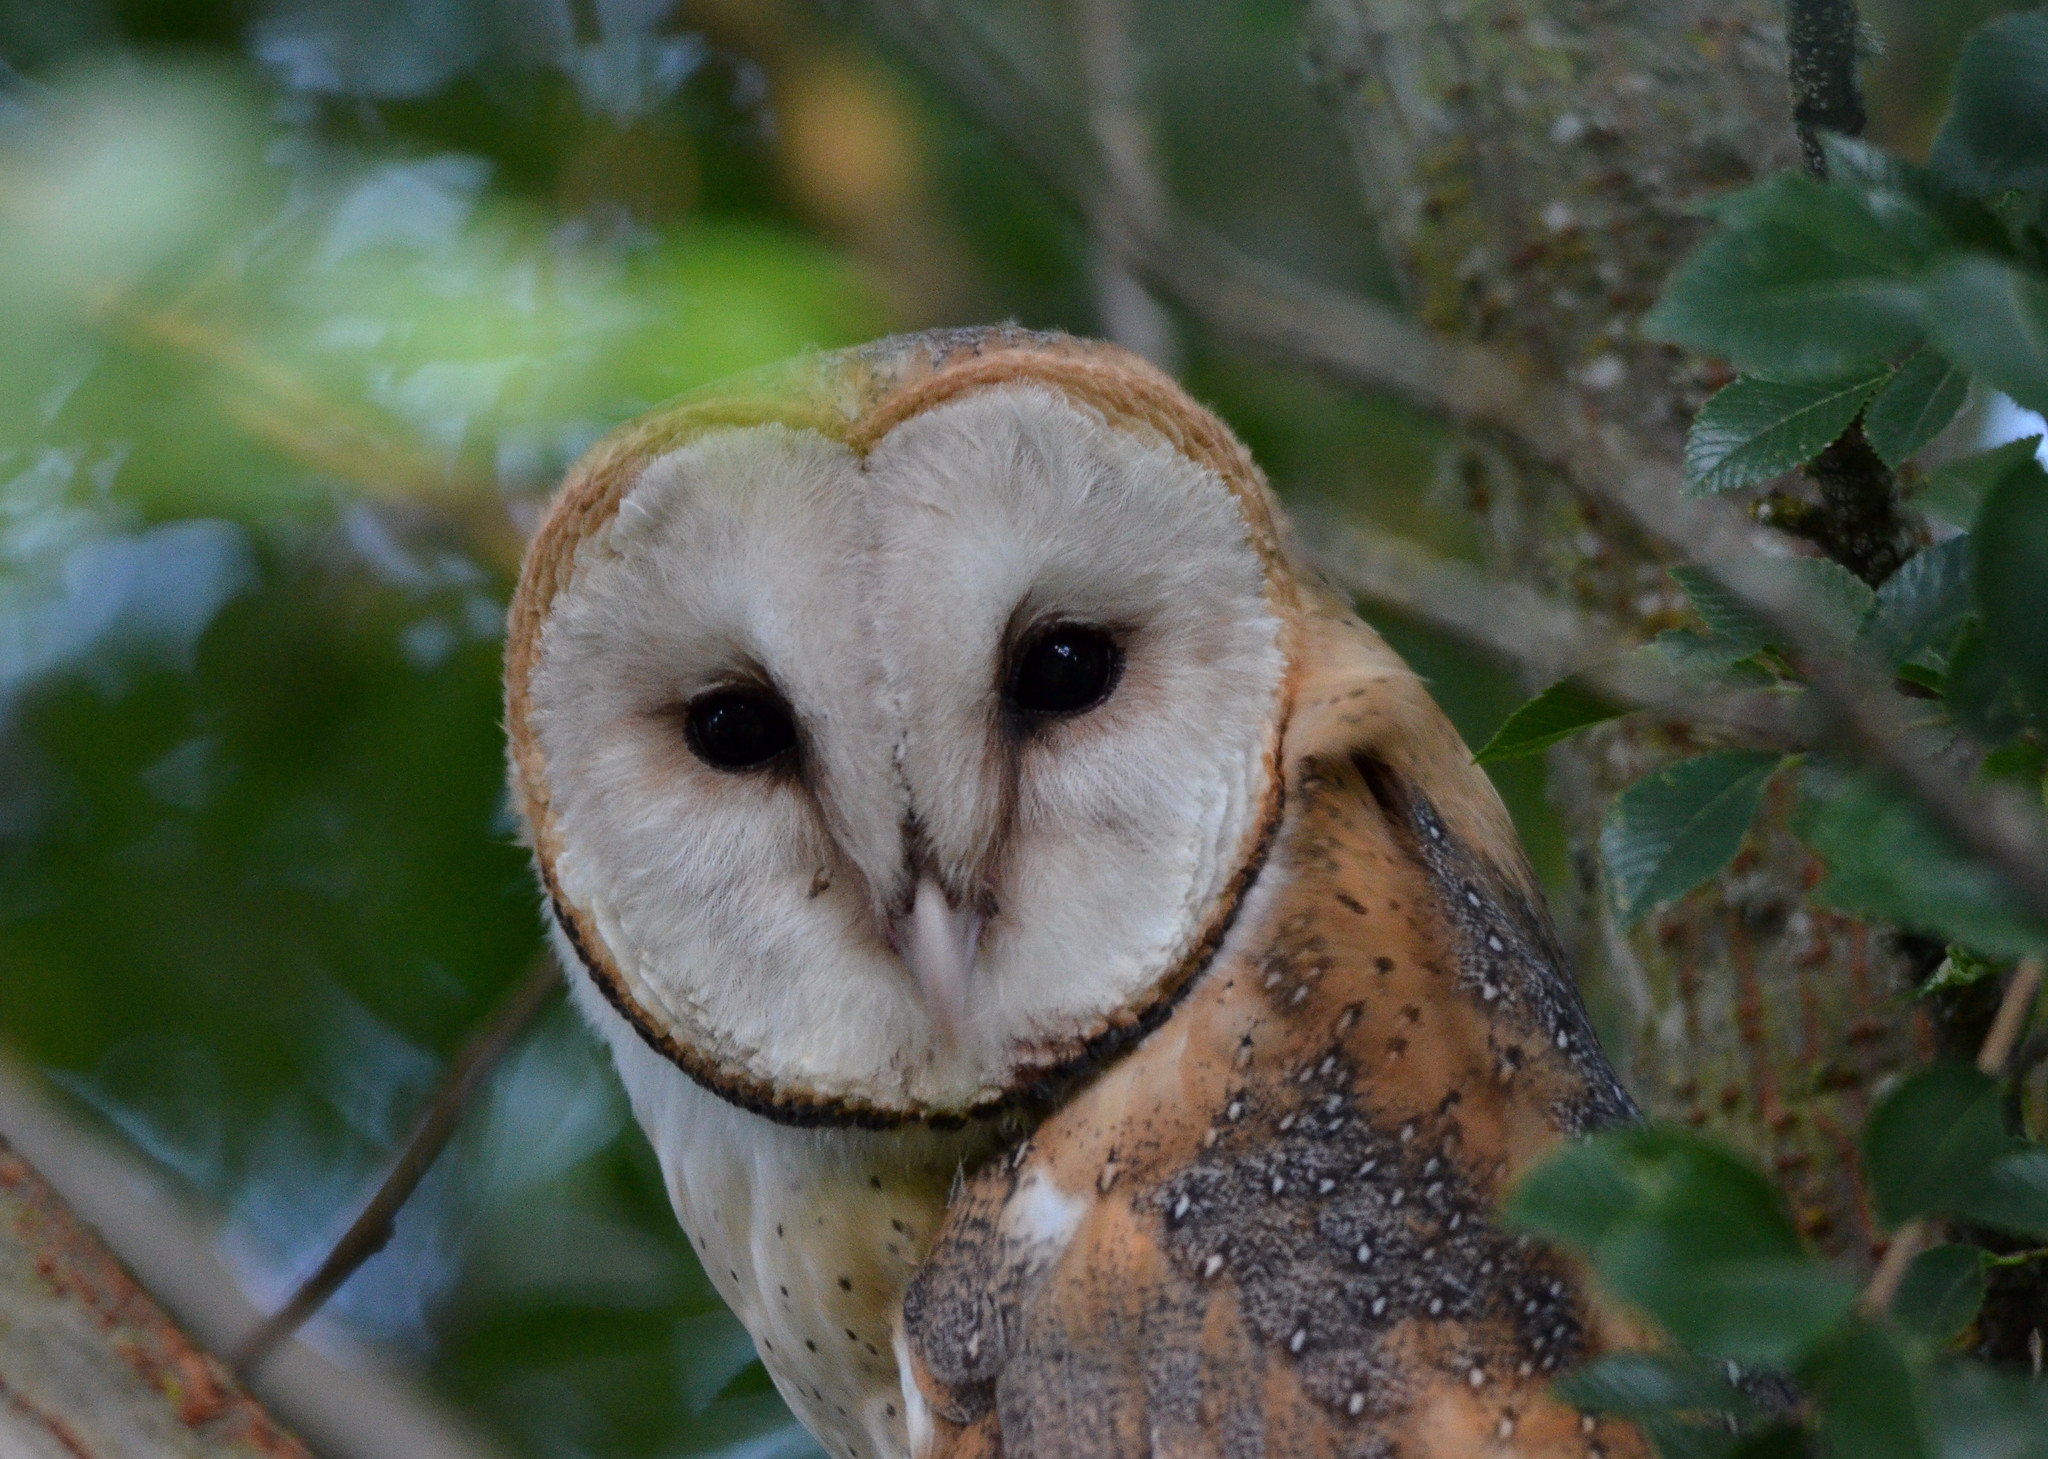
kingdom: Animalia
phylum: Chordata
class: Aves
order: Strigiformes
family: Tytonidae
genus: Tyto
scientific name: Tyto alba
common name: Barn owl
